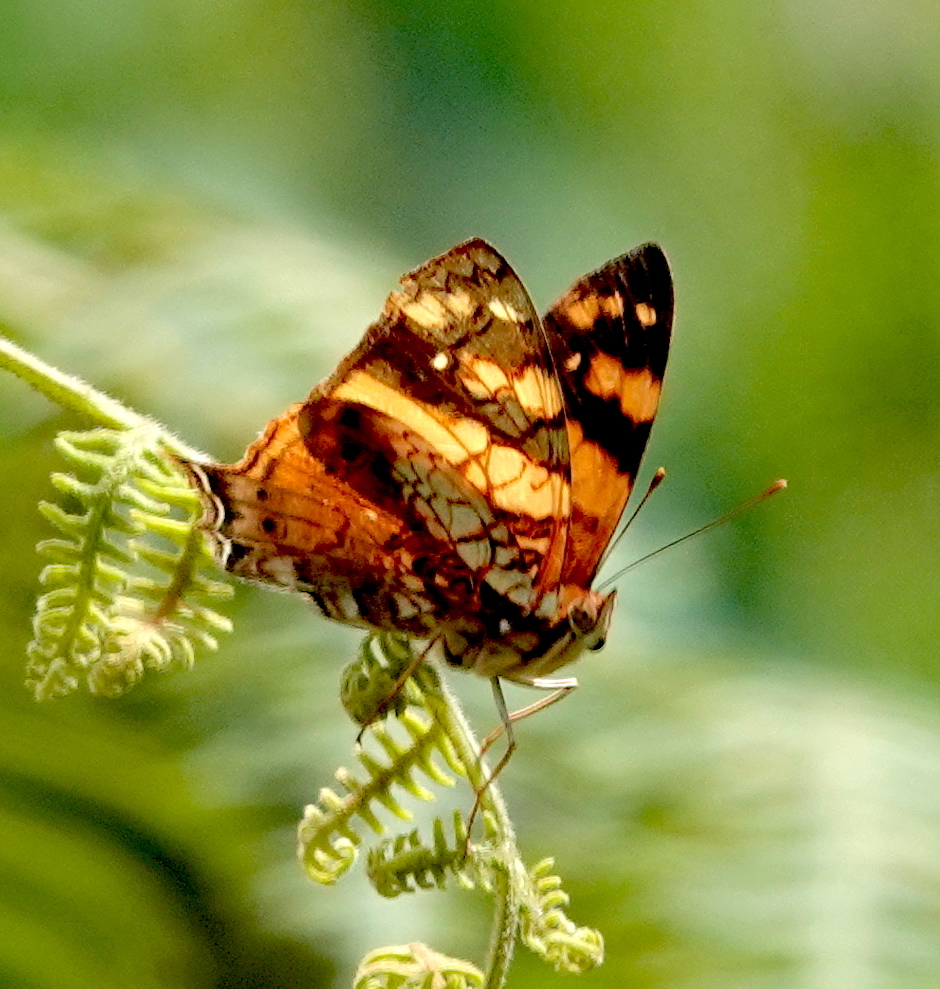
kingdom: Animalia
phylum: Arthropoda
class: Insecta
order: Lepidoptera
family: Nymphalidae
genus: Hypanartia
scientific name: Hypanartia lethe
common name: Orange mapwing
